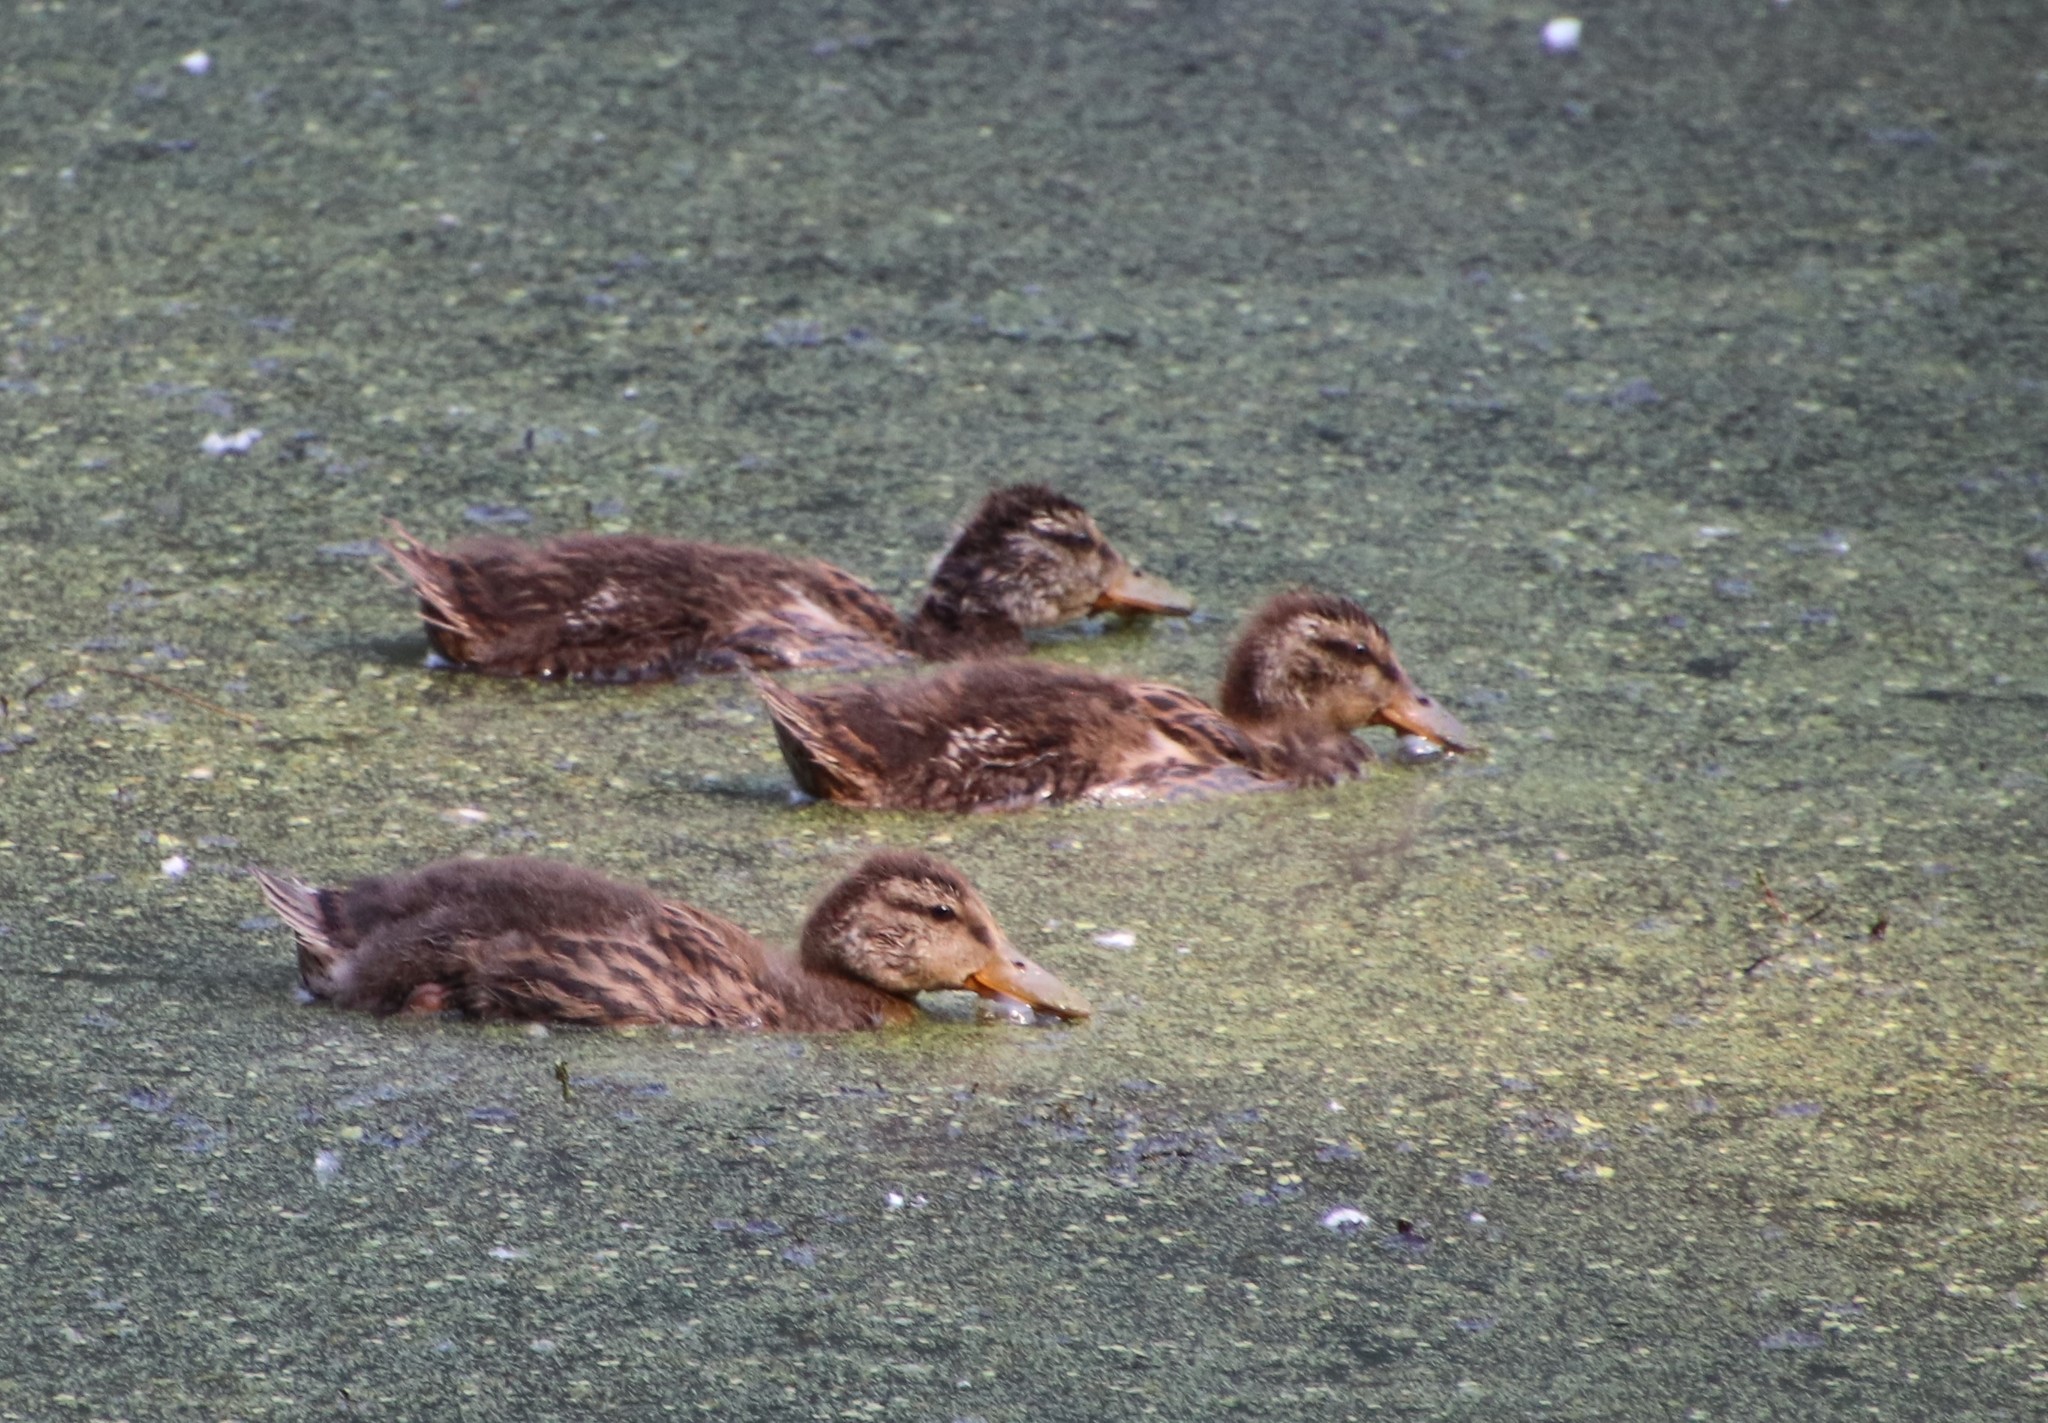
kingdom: Animalia
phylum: Chordata
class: Aves
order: Anseriformes
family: Anatidae
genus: Anas
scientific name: Anas platyrhynchos
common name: Mallard
